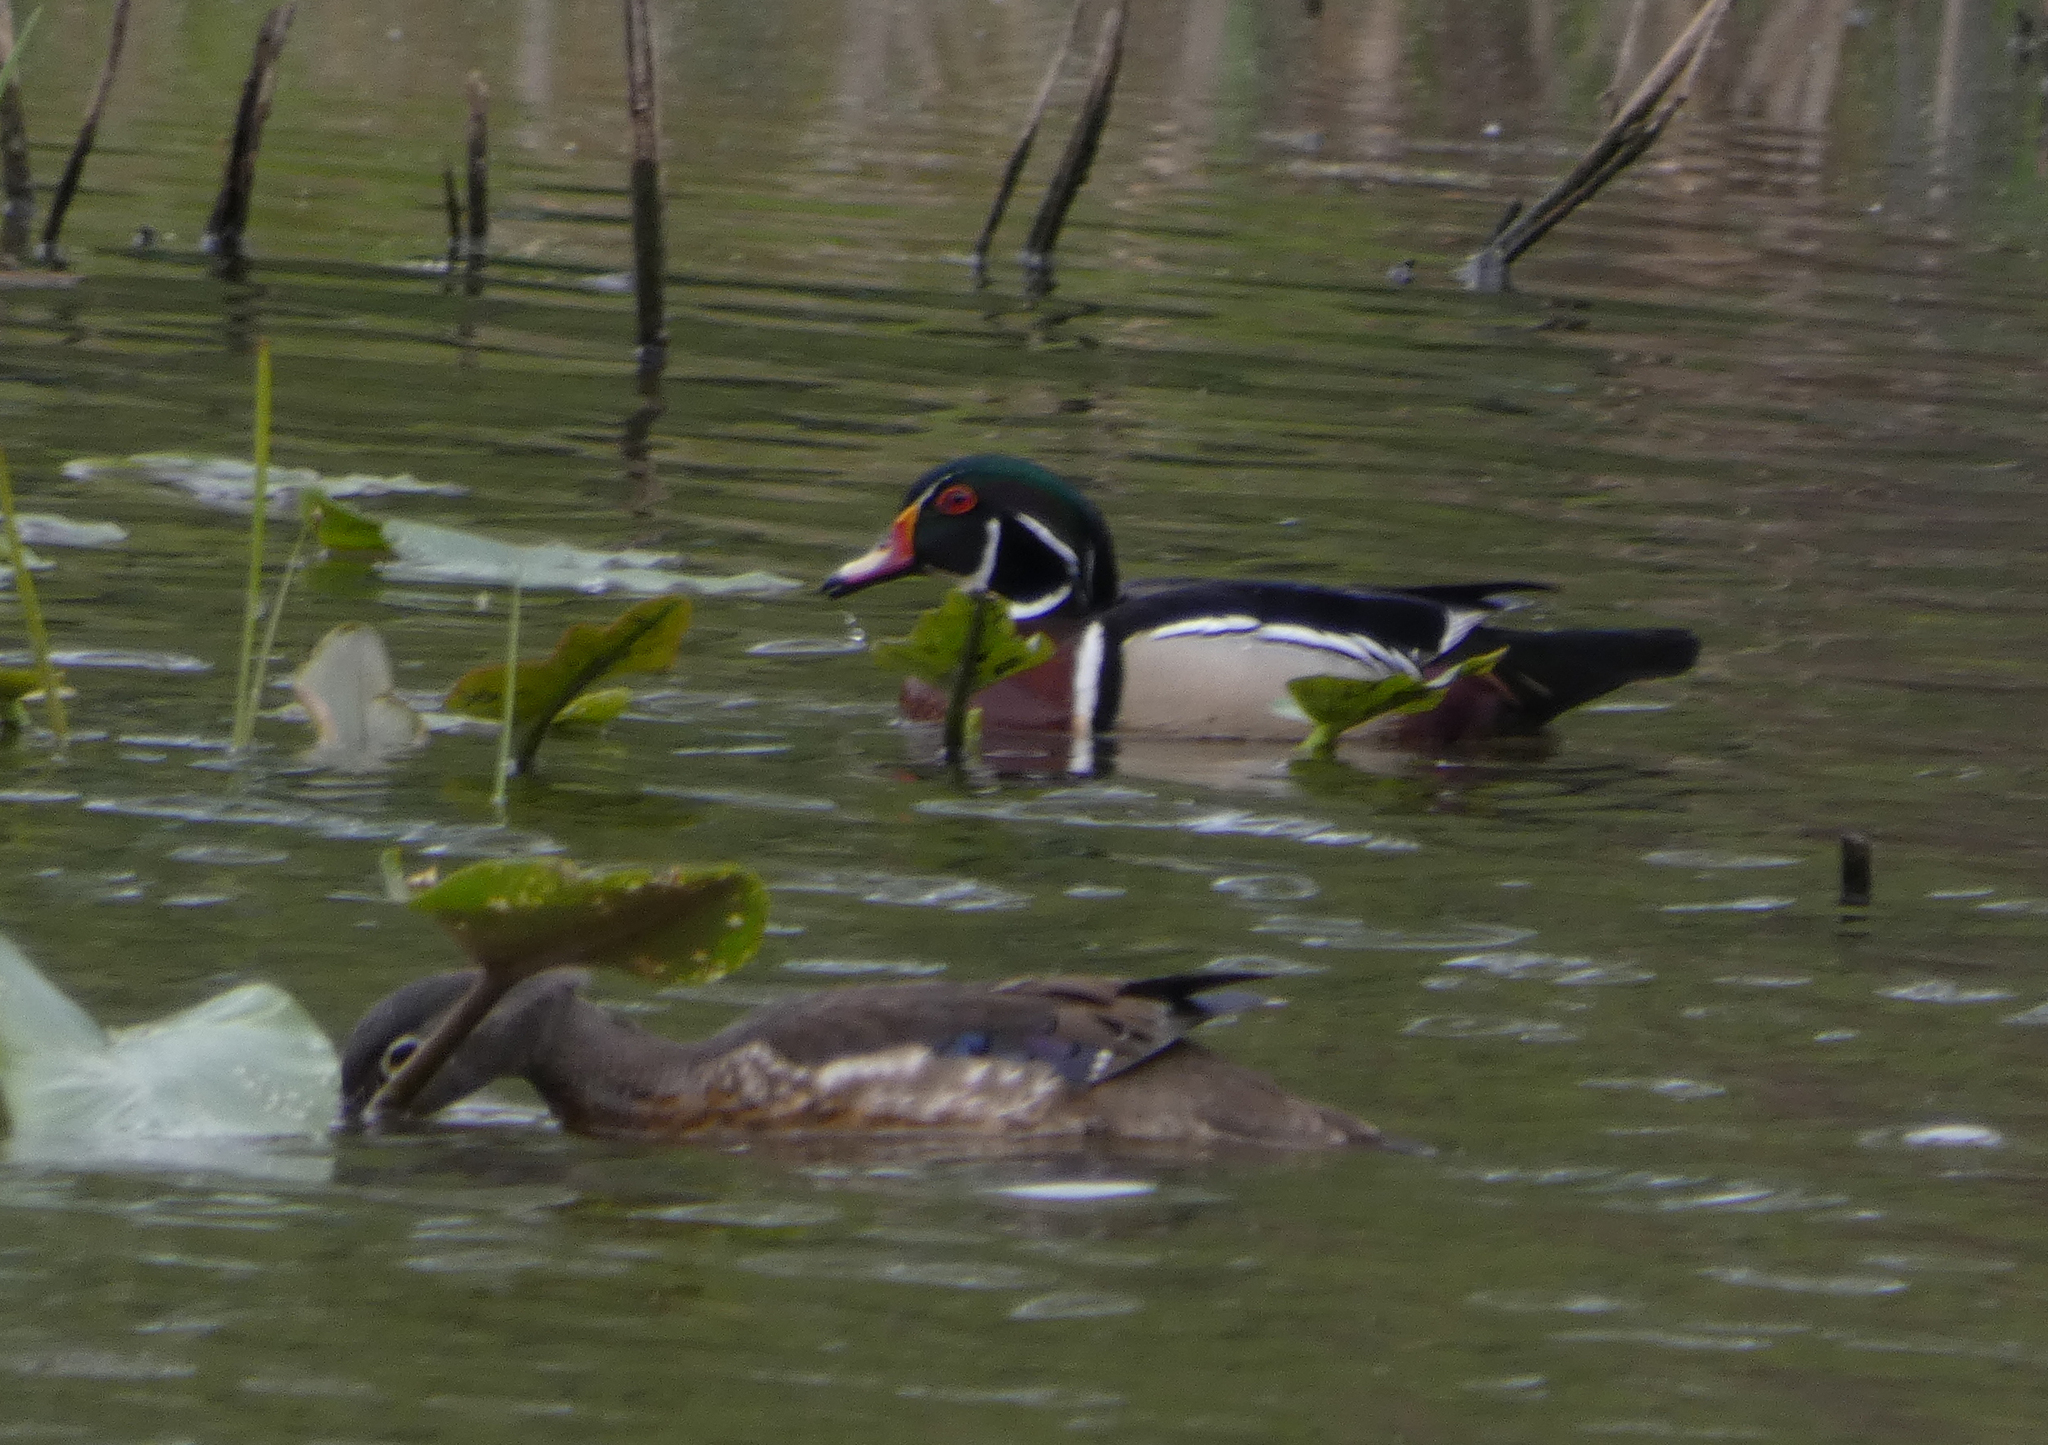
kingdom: Animalia
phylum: Chordata
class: Aves
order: Anseriformes
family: Anatidae
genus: Aix
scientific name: Aix sponsa
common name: Wood duck
